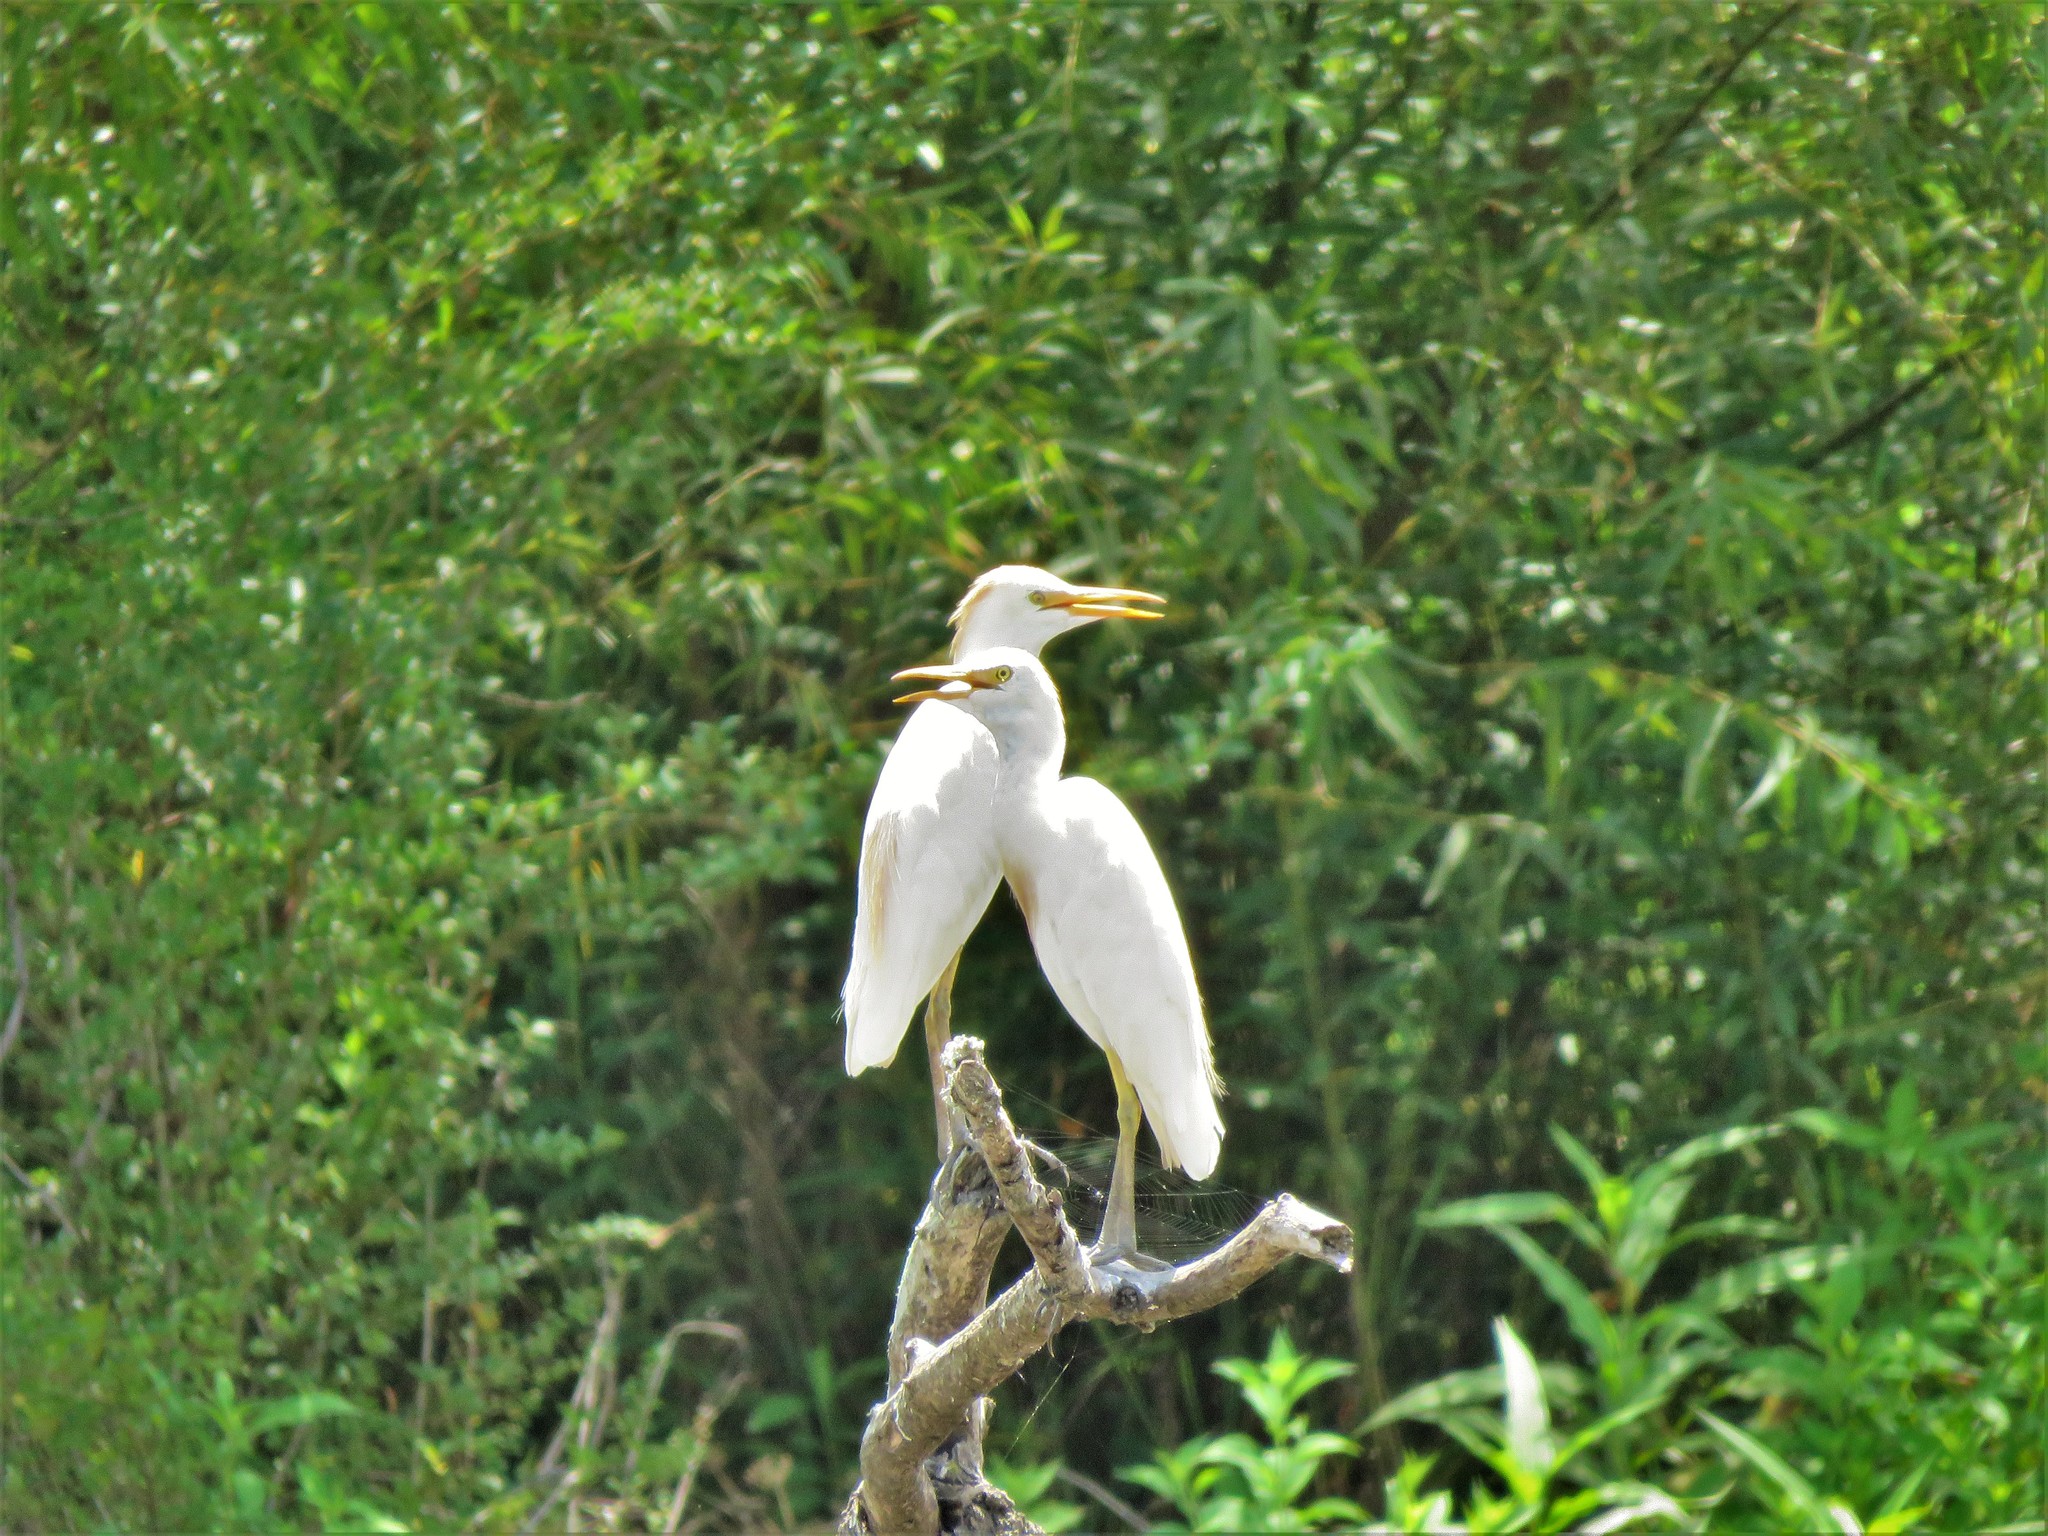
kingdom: Animalia
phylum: Chordata
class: Aves
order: Pelecaniformes
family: Ardeidae
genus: Bubulcus
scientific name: Bubulcus ibis
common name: Cattle egret
